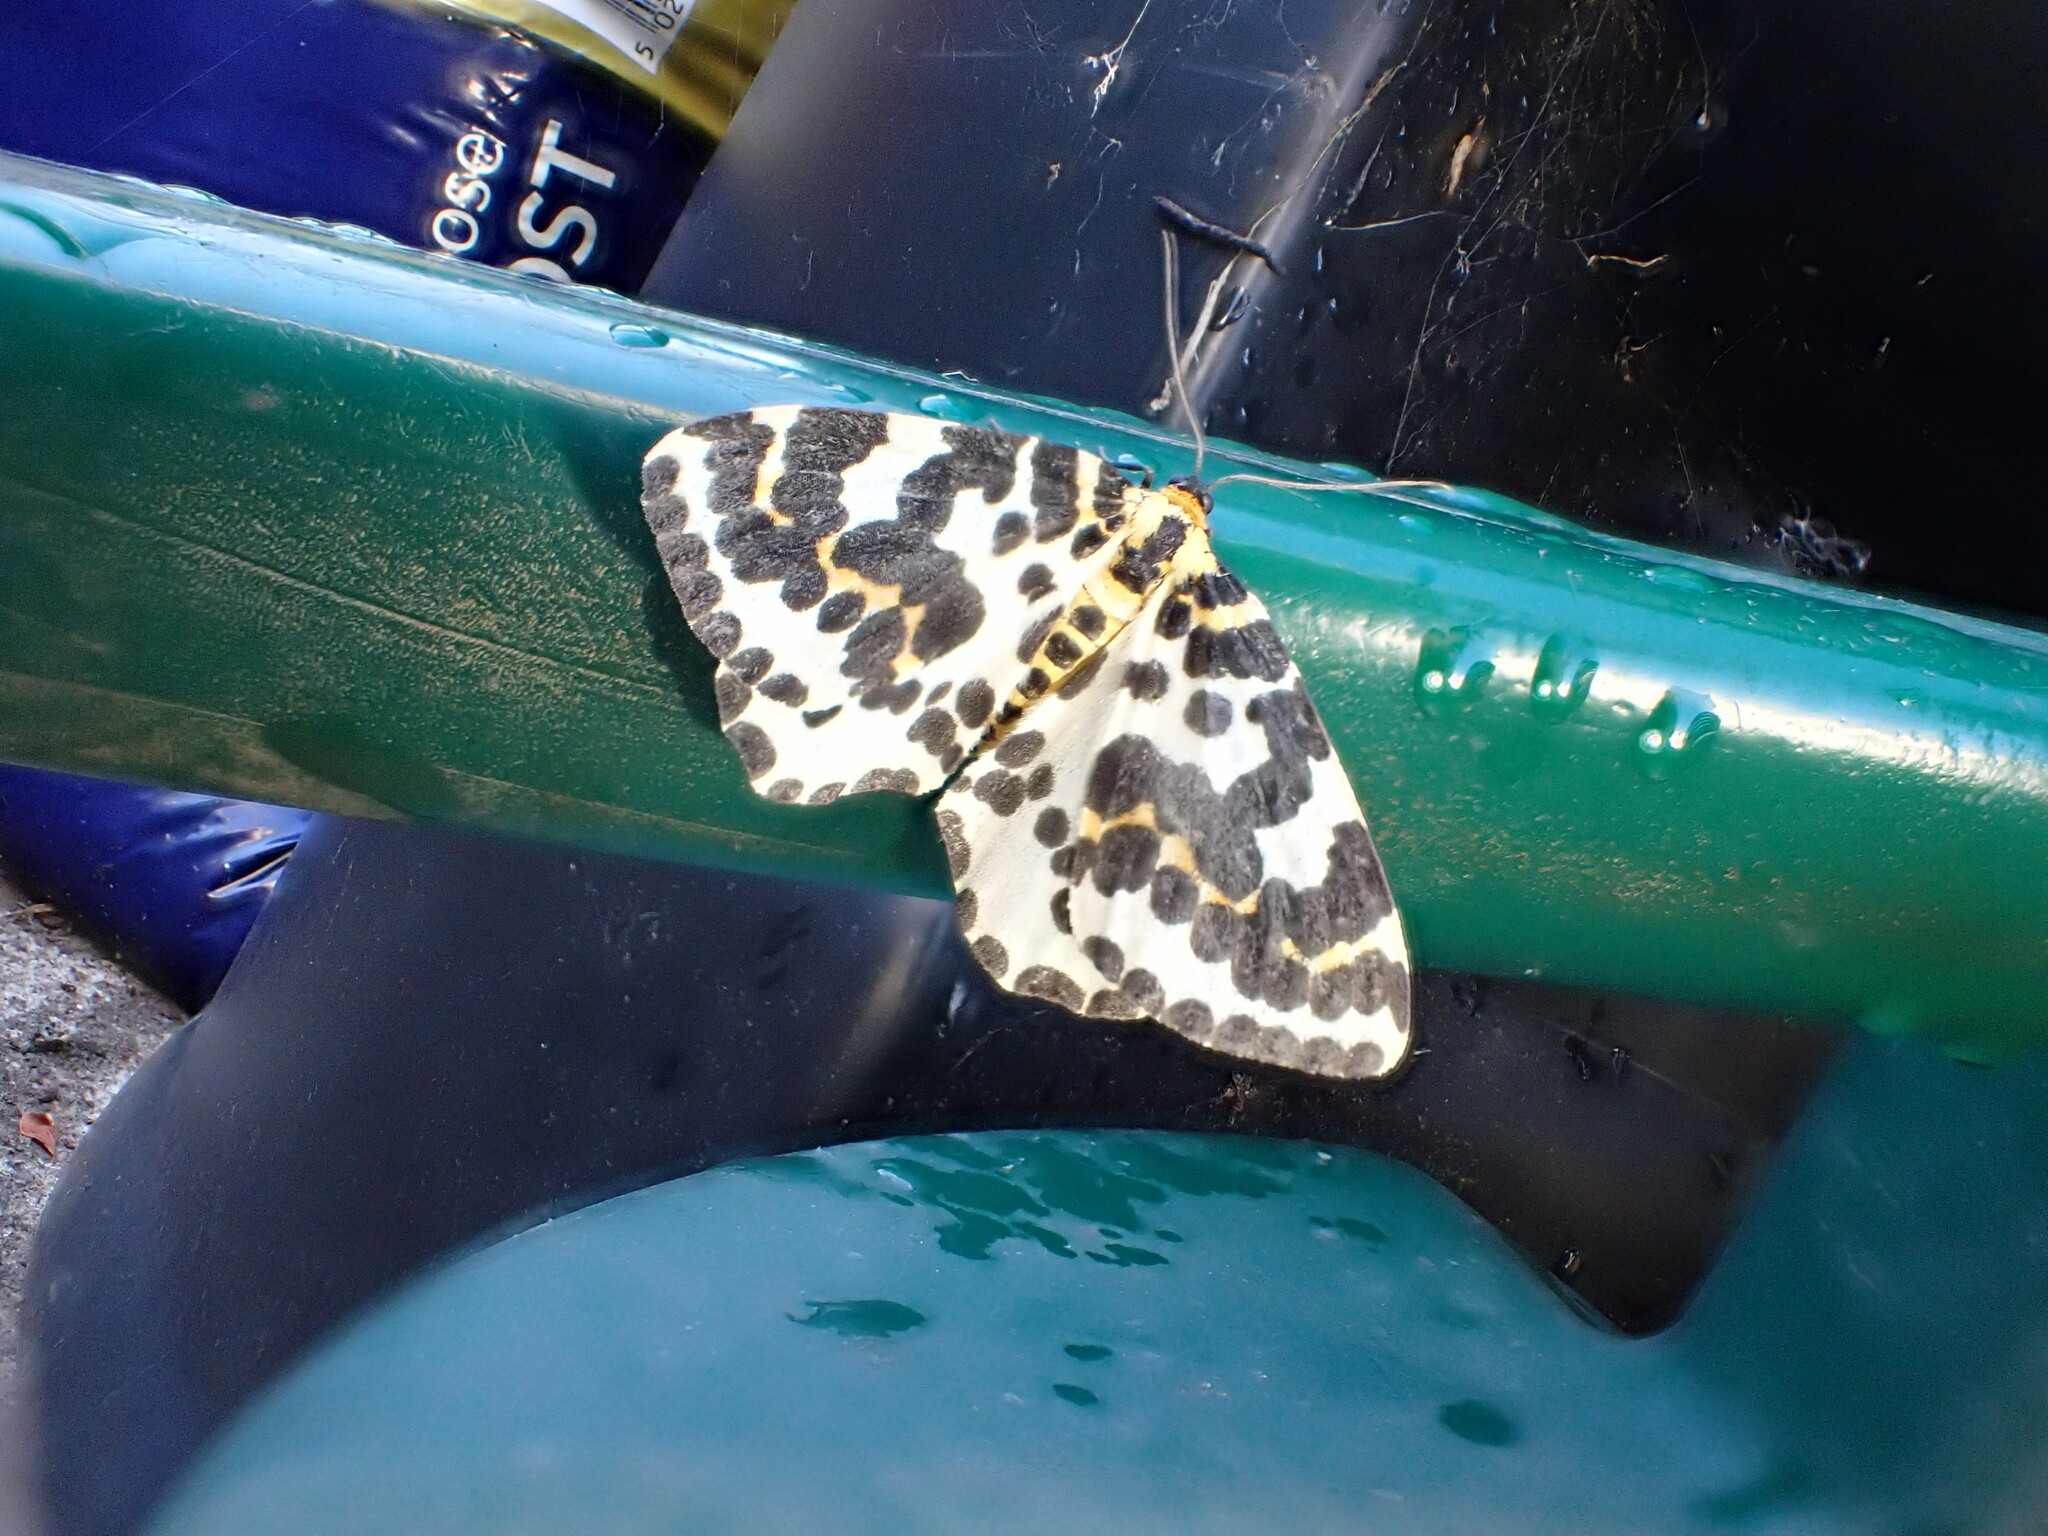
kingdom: Animalia
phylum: Arthropoda
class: Insecta
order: Lepidoptera
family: Geometridae
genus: Abraxas
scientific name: Abraxas grossulariata
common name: Magpie
